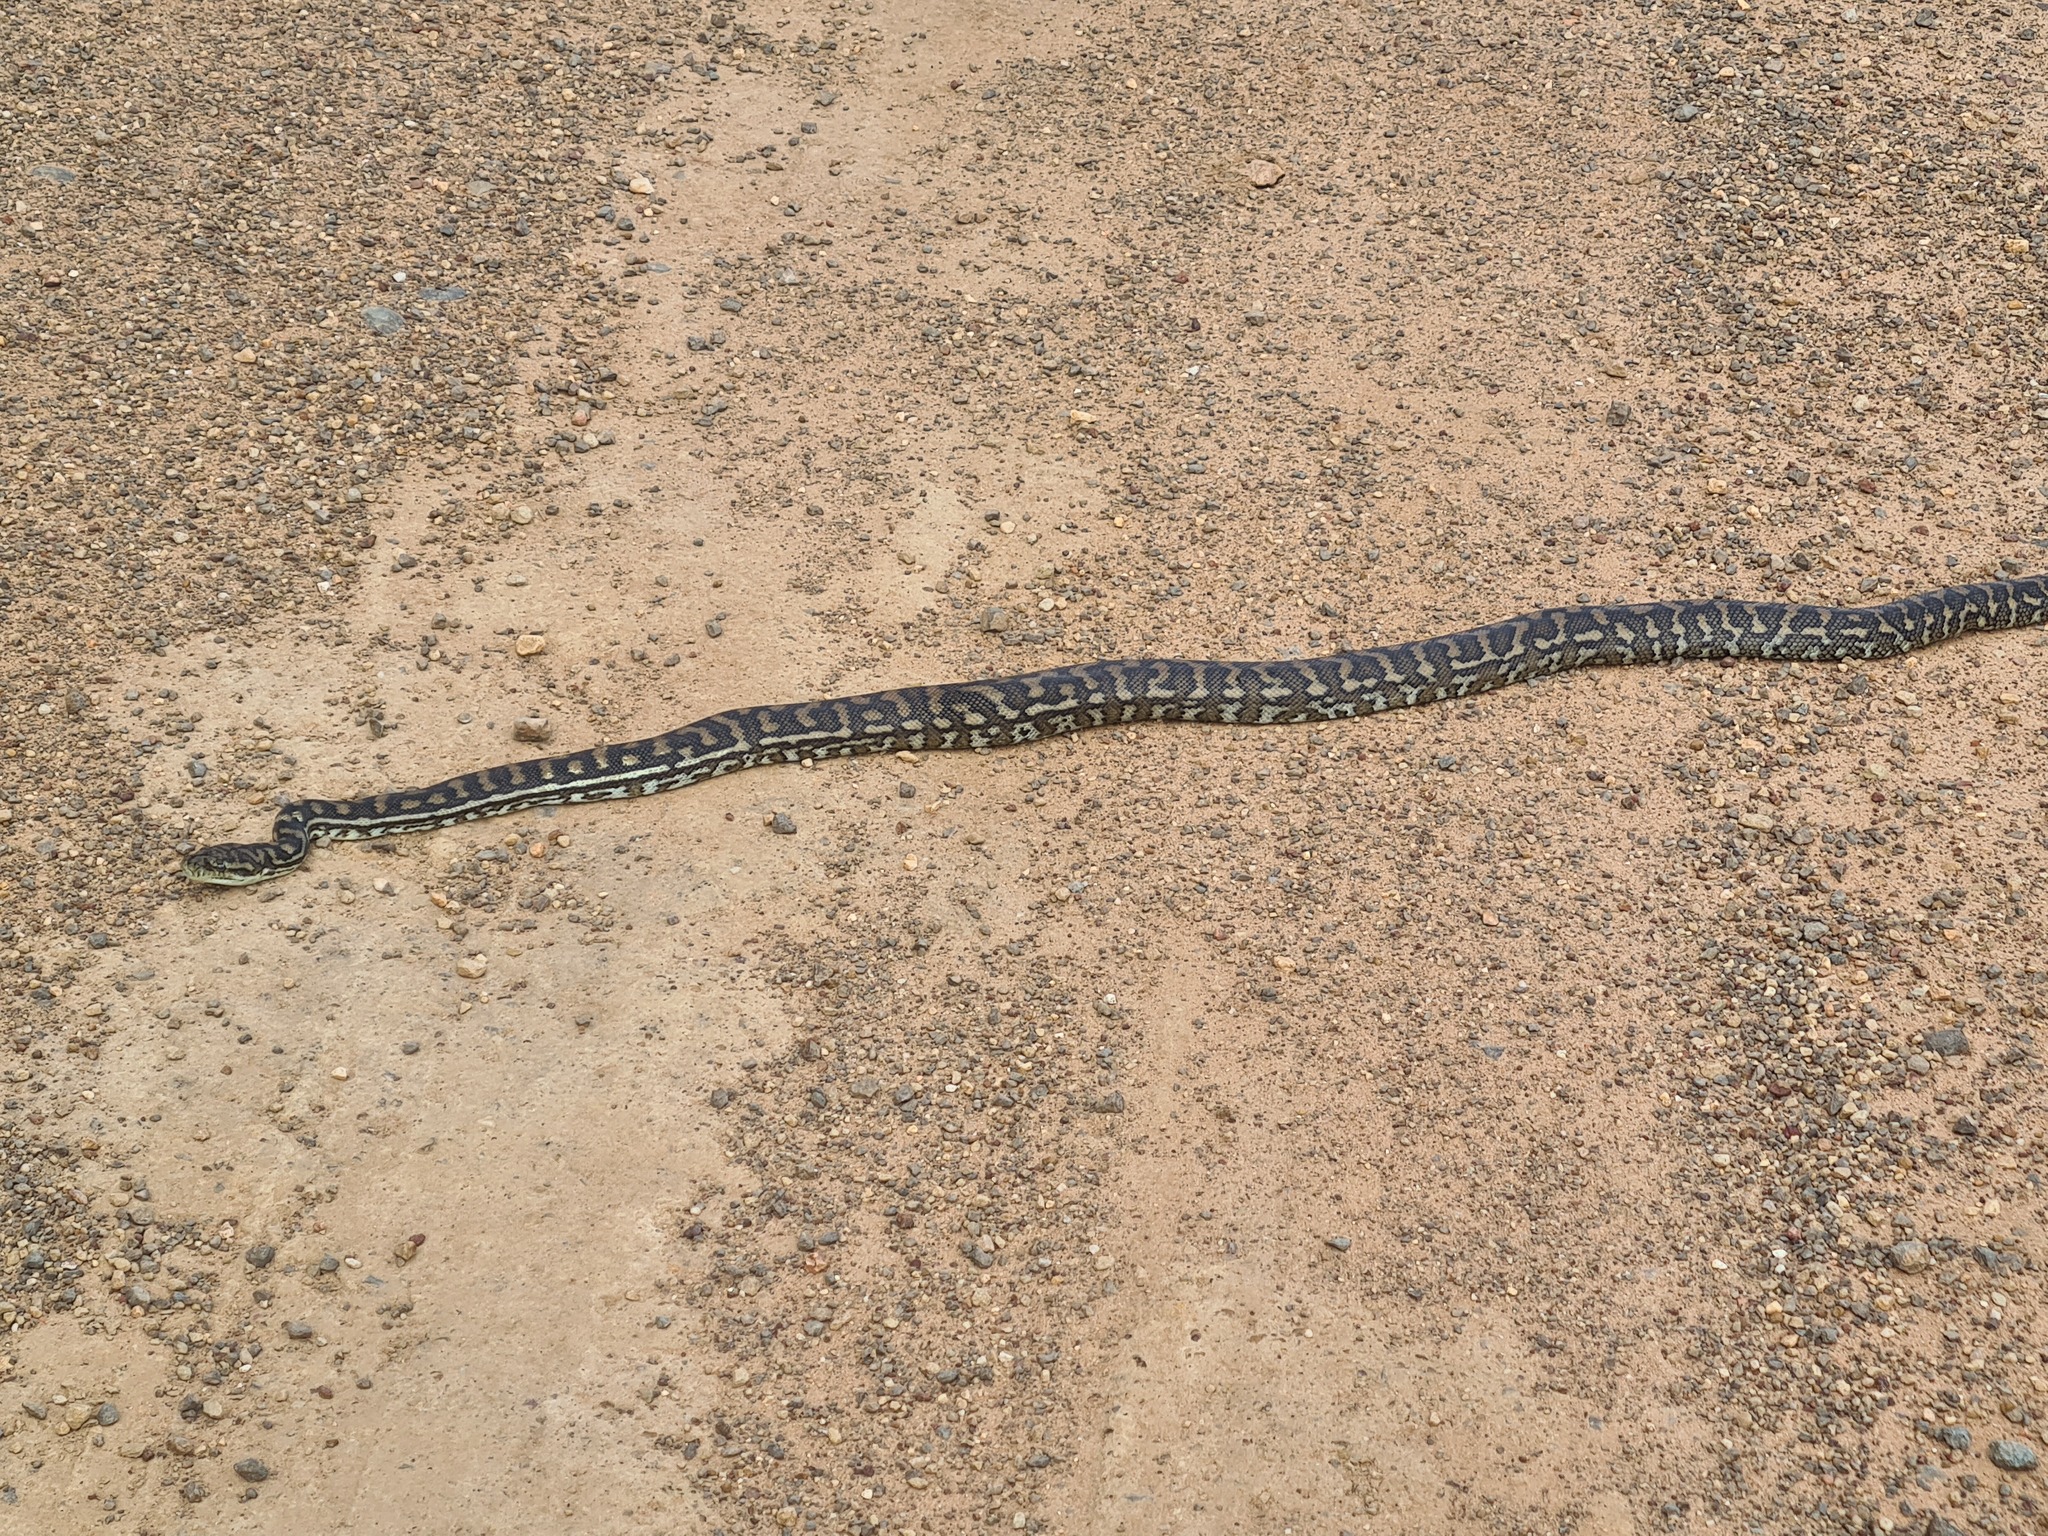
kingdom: Animalia
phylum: Chordata
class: Squamata
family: Pythonidae
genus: Morelia
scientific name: Morelia spilota
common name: Carpet python
